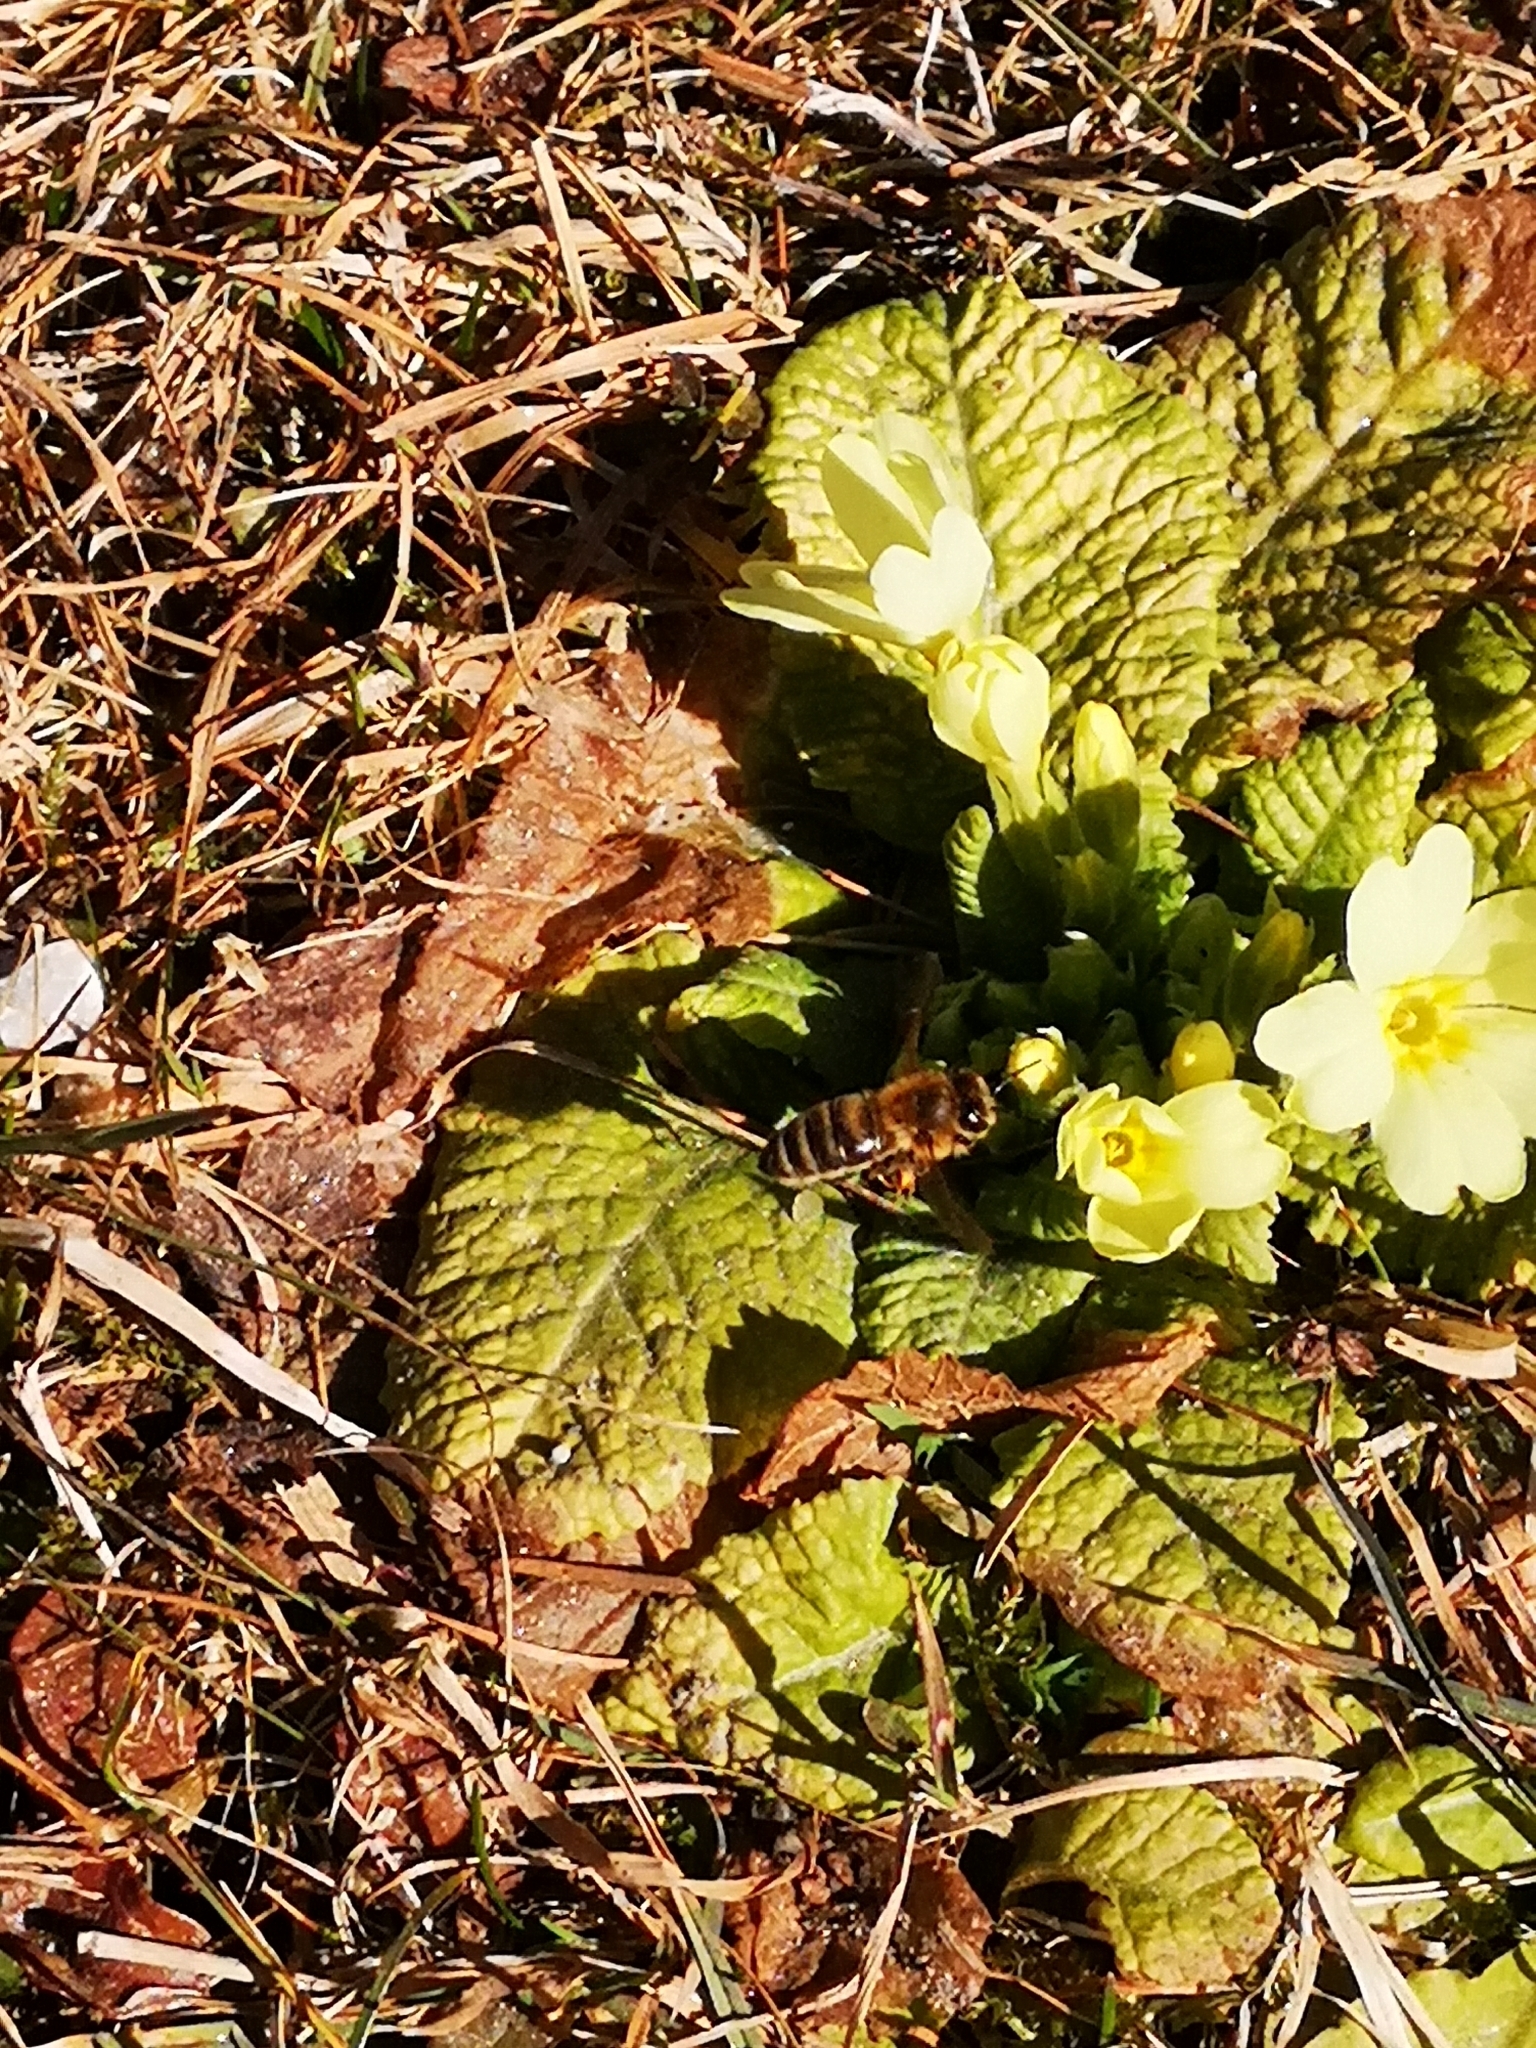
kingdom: Plantae
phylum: Tracheophyta
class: Magnoliopsida
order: Ericales
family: Primulaceae
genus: Primula
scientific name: Primula vulgaris
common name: Primrose
